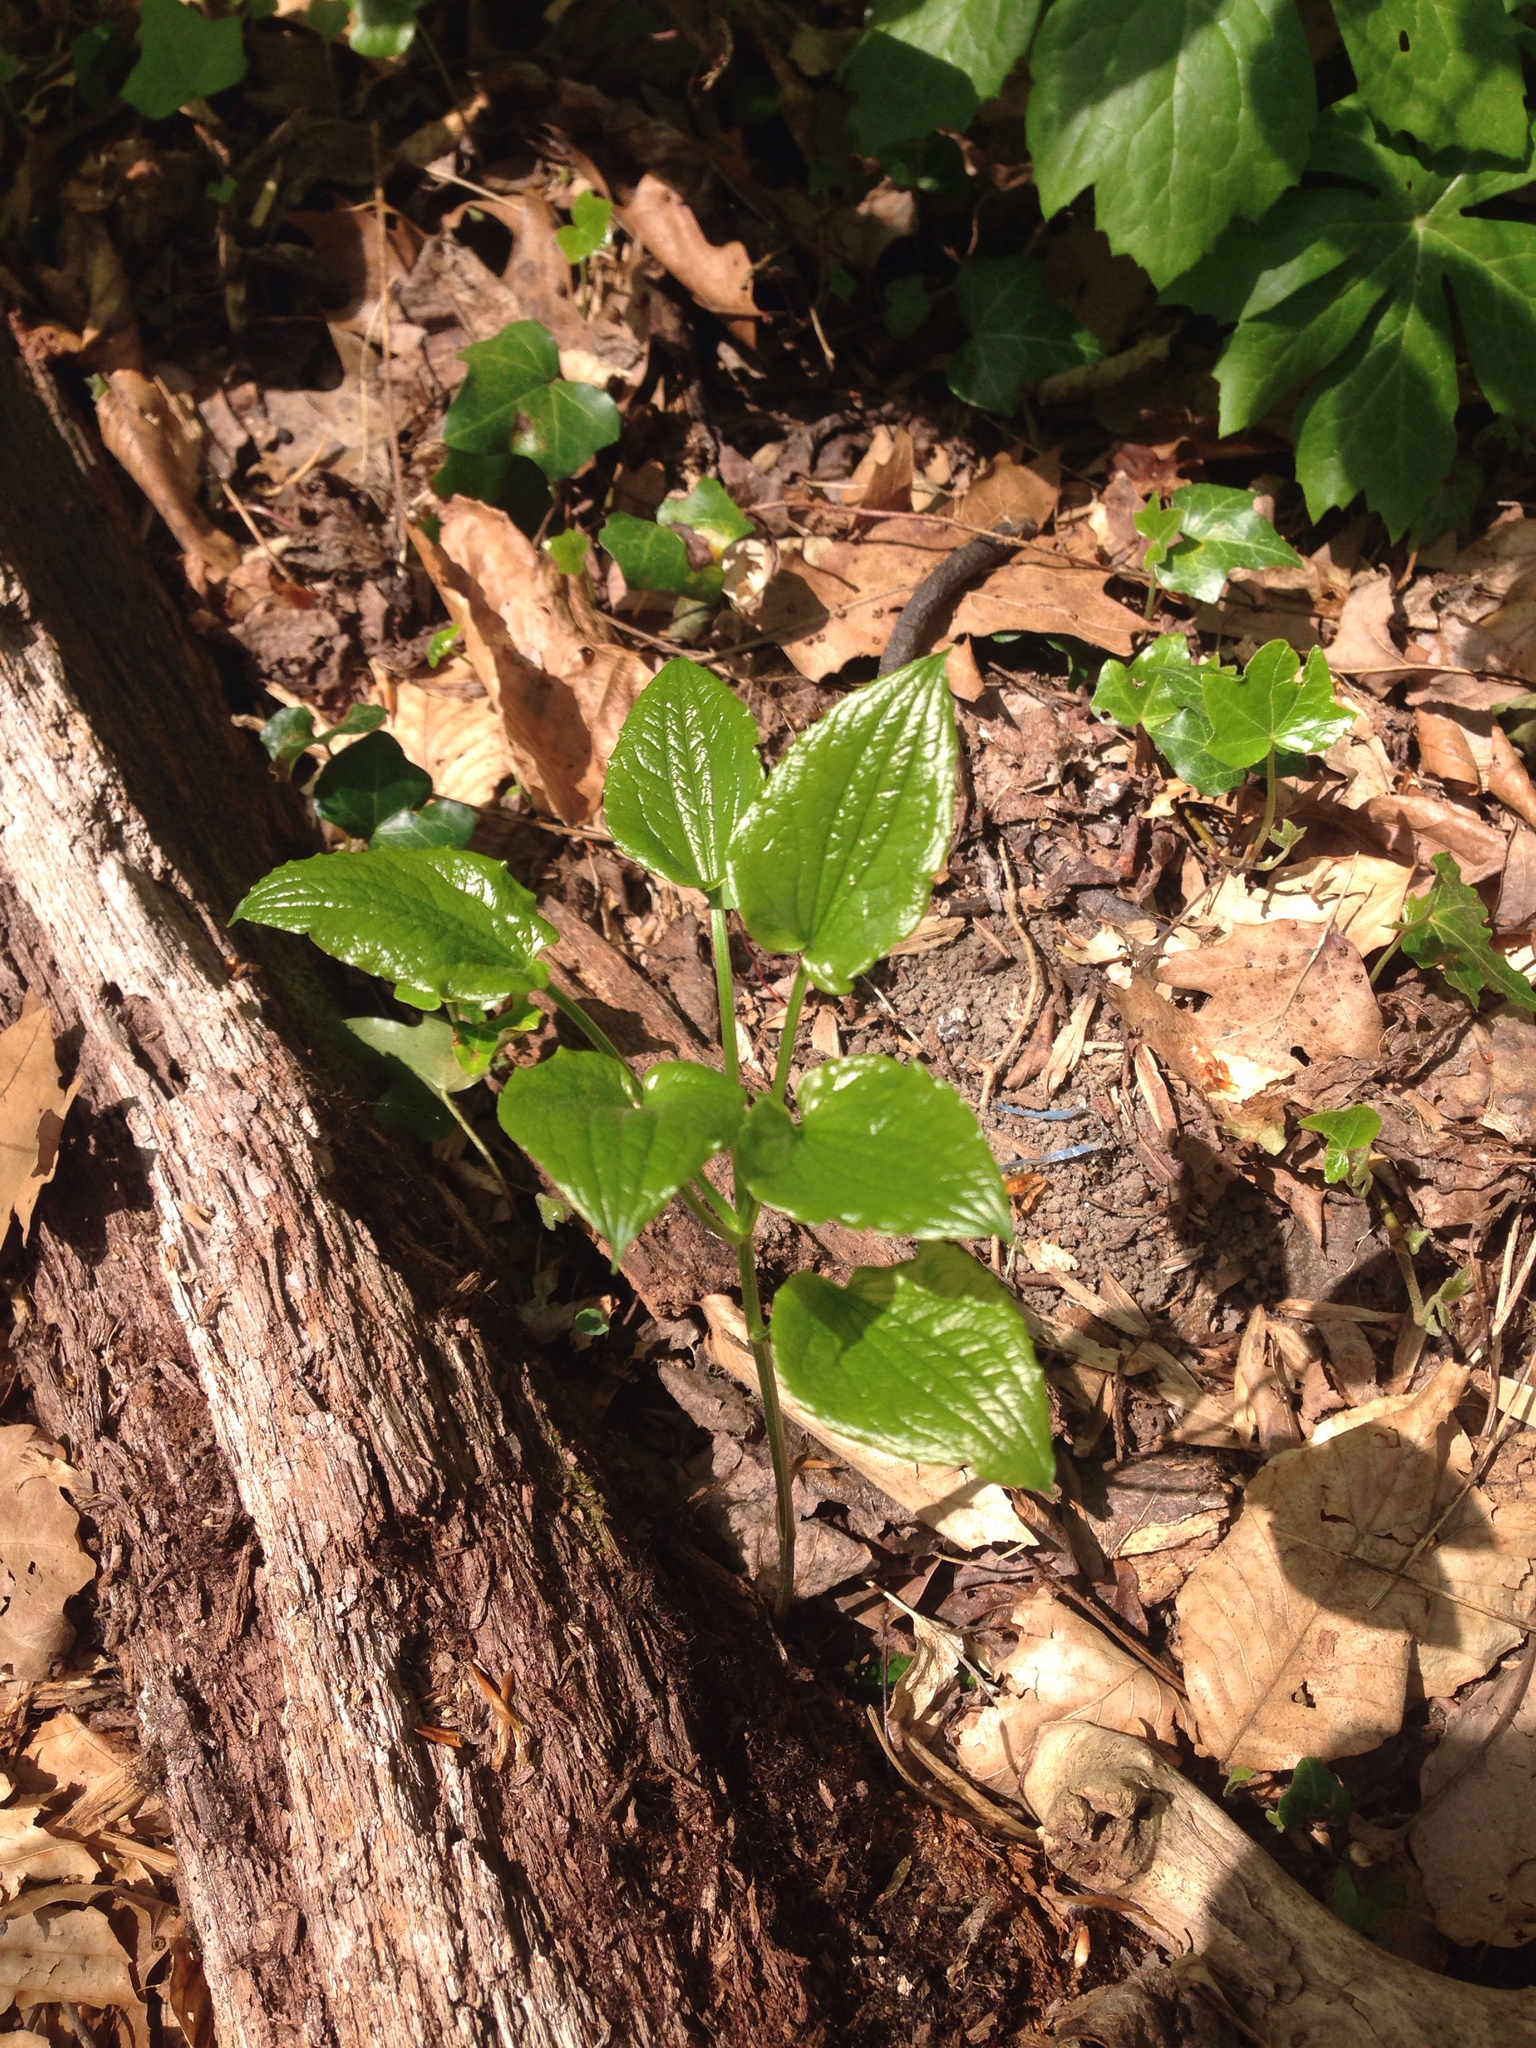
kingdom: Plantae
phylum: Tracheophyta
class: Liliopsida
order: Dioscoreales
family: Dioscoreaceae
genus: Dioscorea
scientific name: Dioscorea villosa
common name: Wild yam
